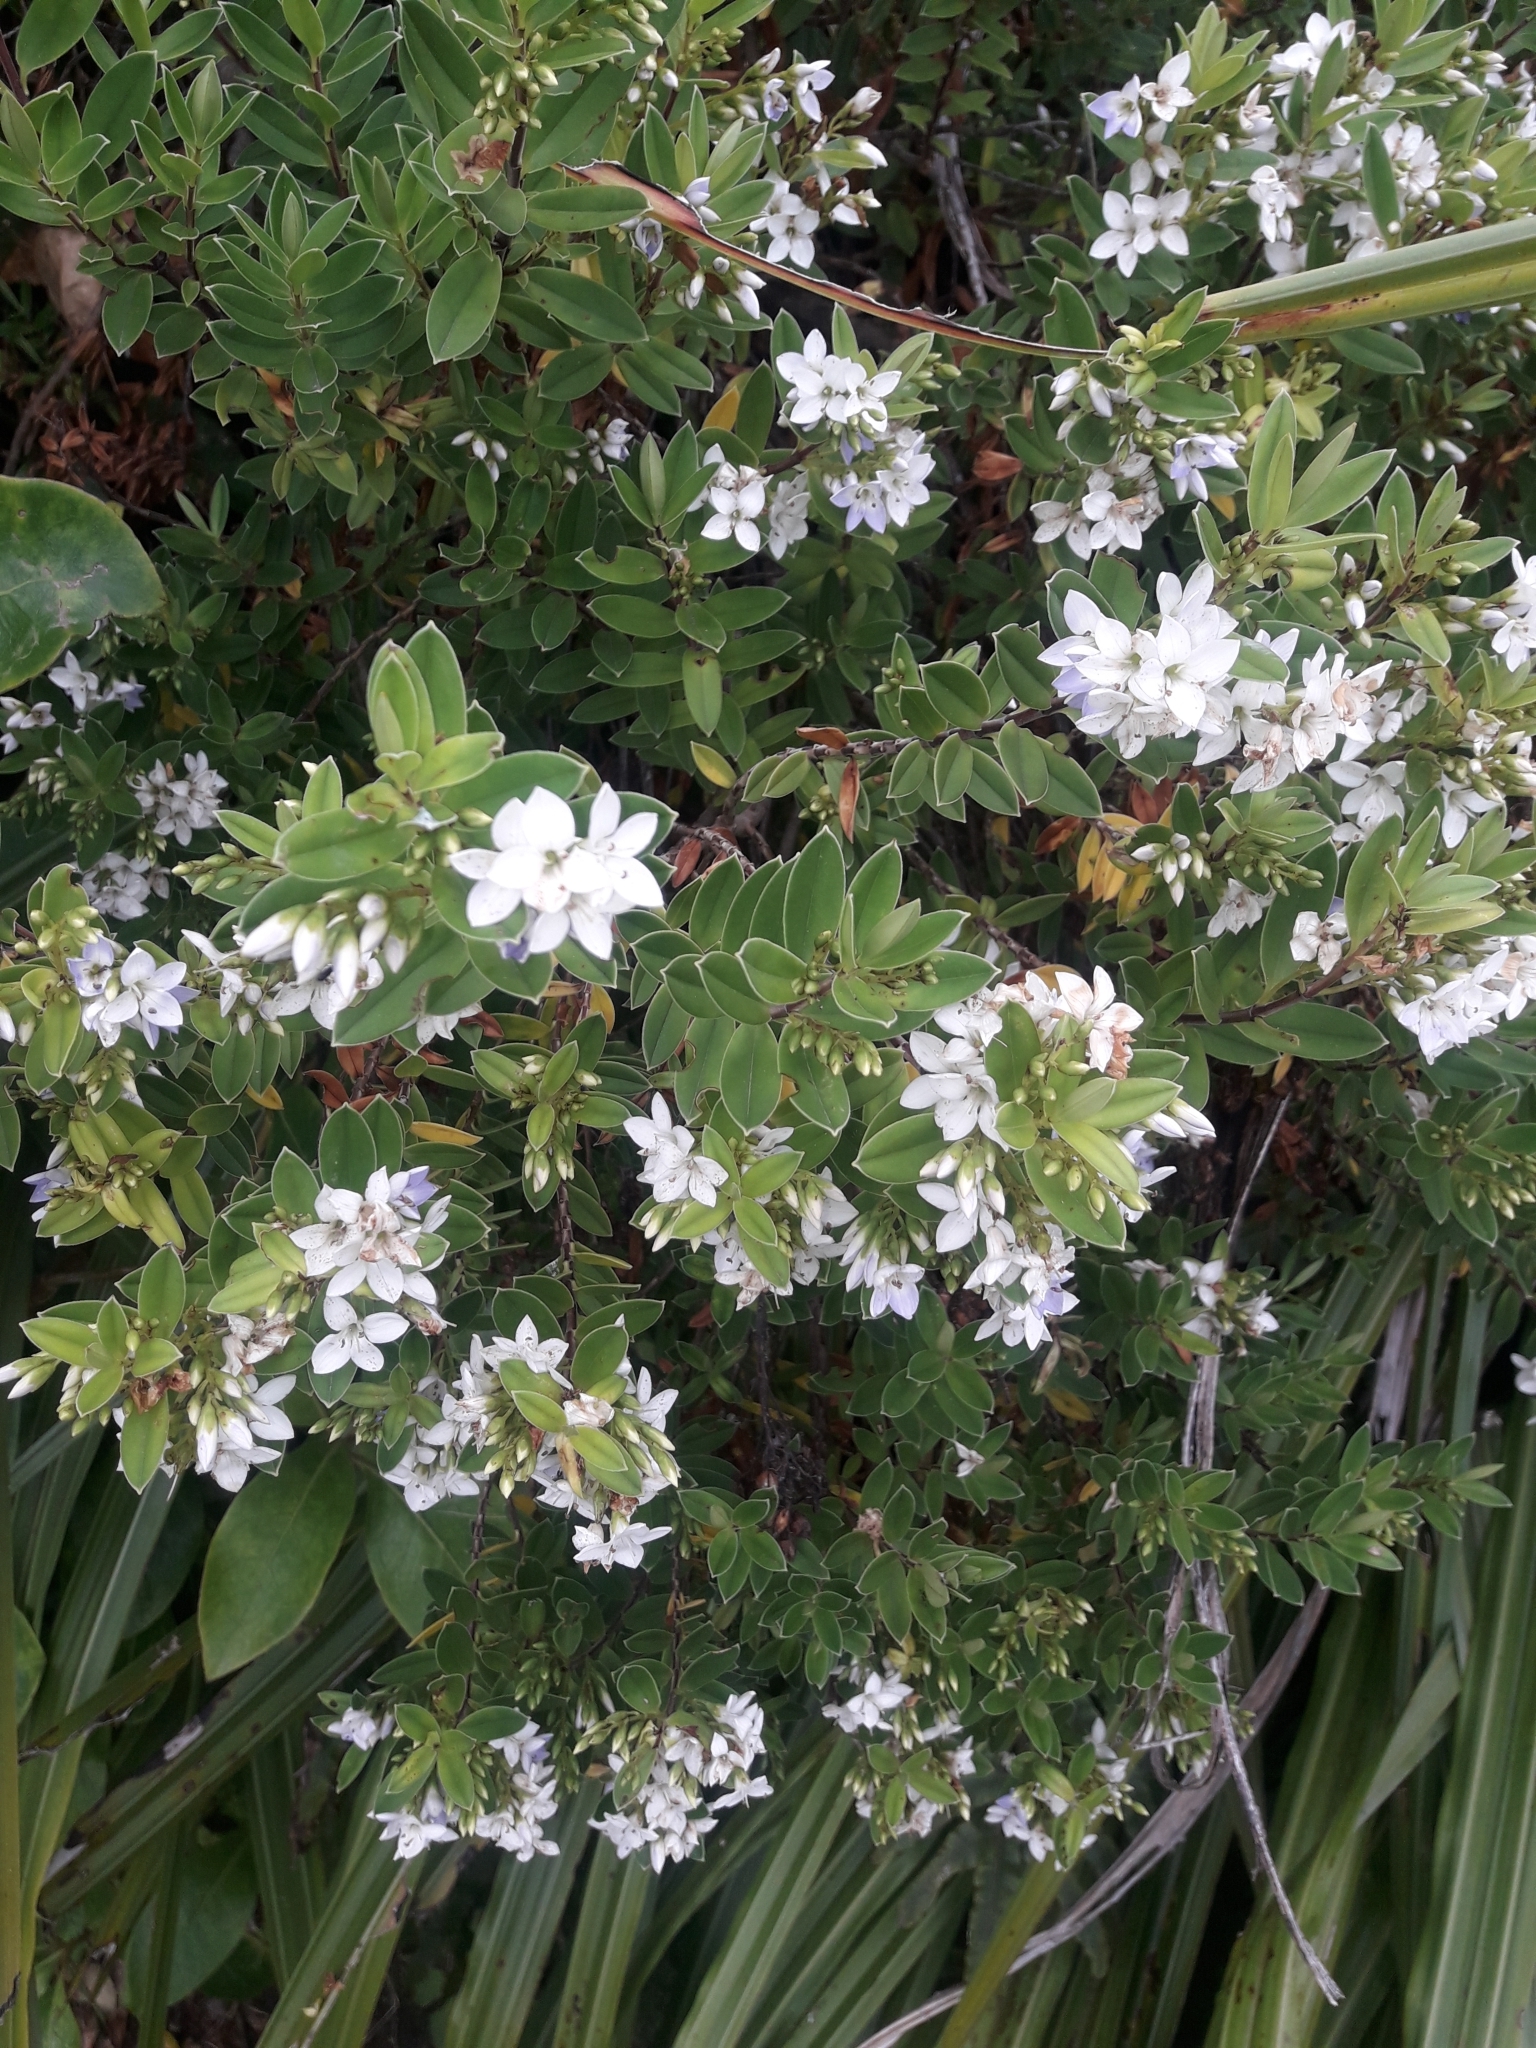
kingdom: Plantae
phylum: Tracheophyta
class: Magnoliopsida
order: Lamiales
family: Plantaginaceae
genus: Veronica
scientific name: Veronica elliptica
